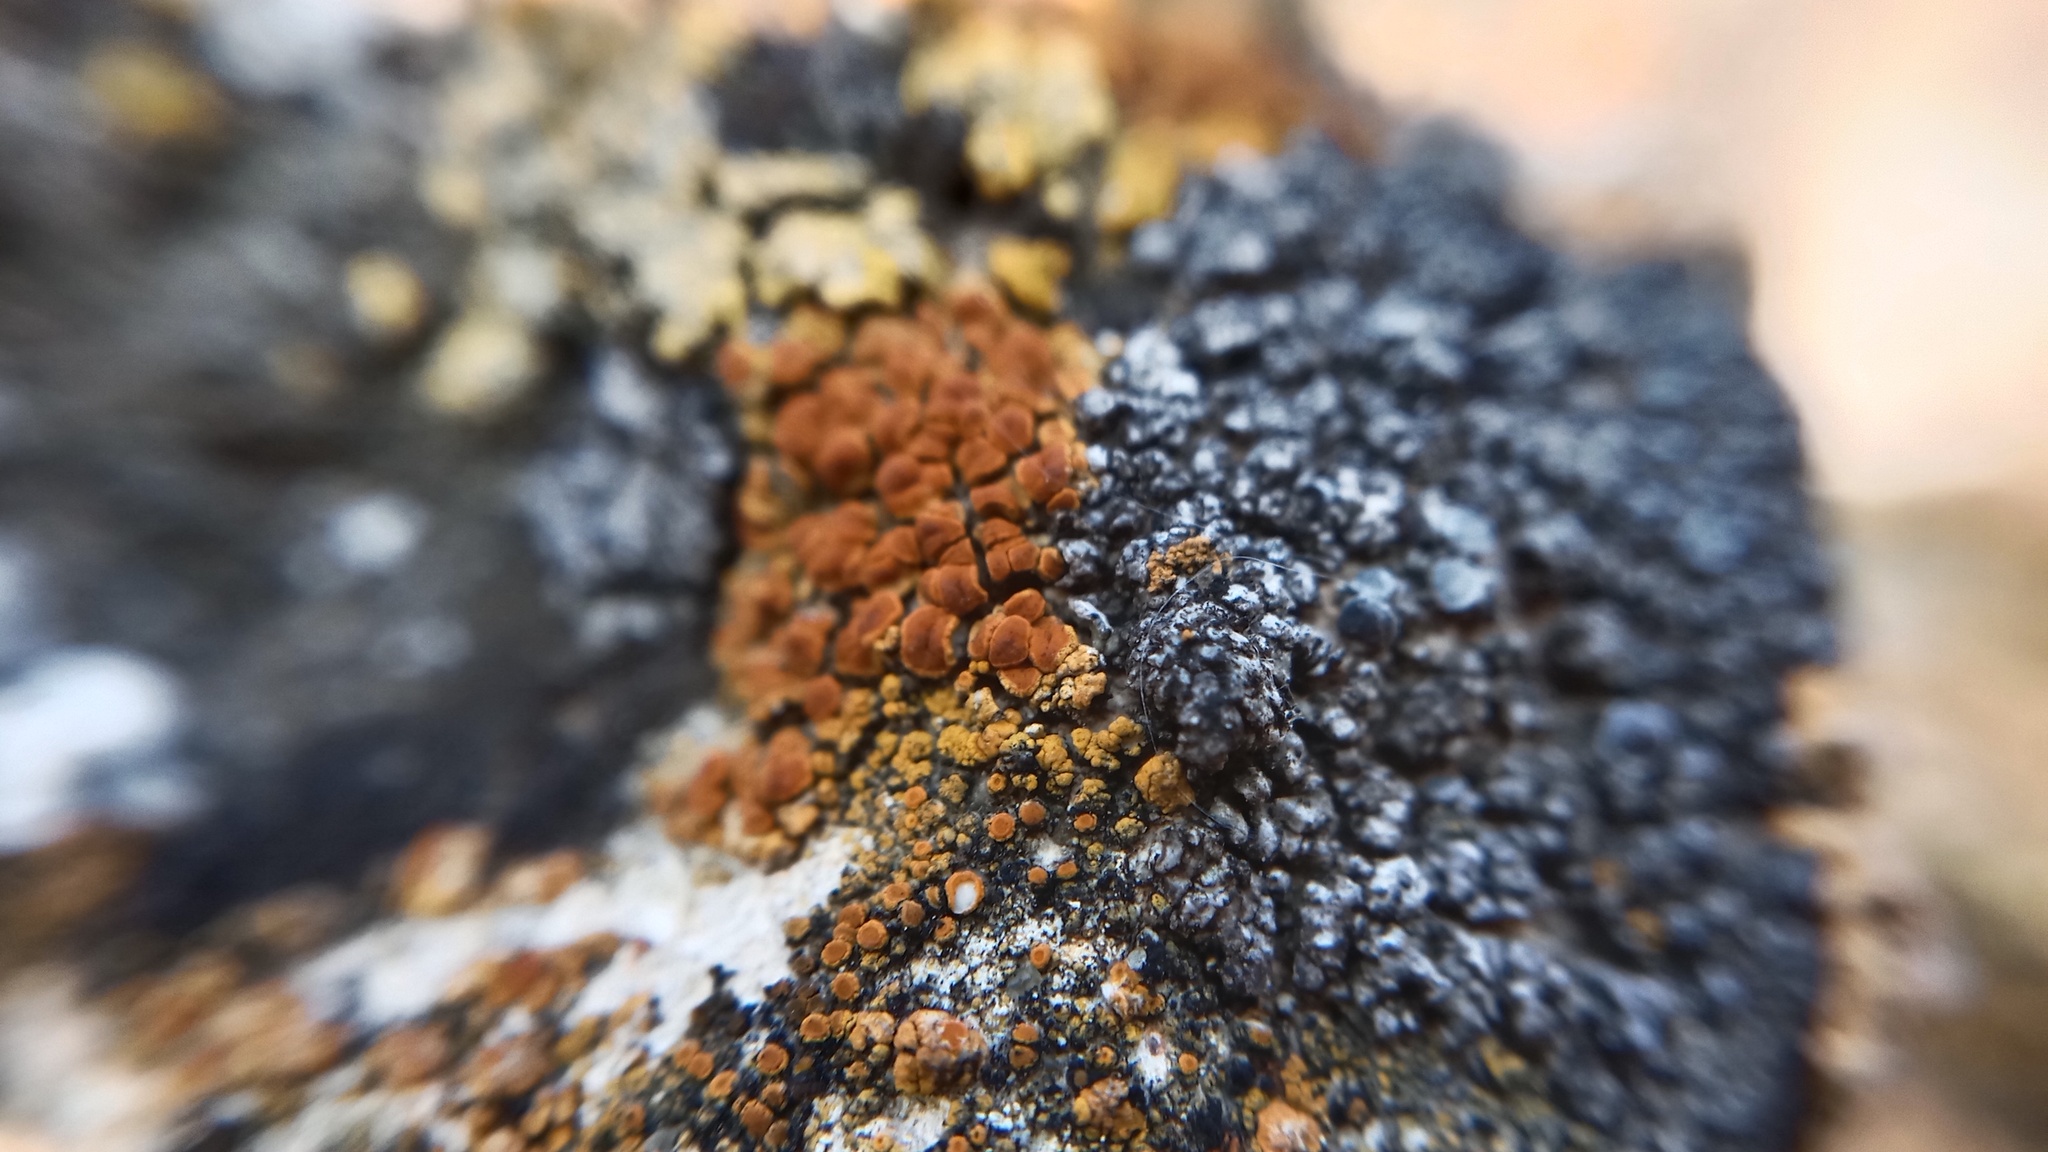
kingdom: Fungi
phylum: Ascomycota
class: Lecanoromycetes
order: Teloschistales
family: Teloschistaceae
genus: Variospora
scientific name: Variospora velana
